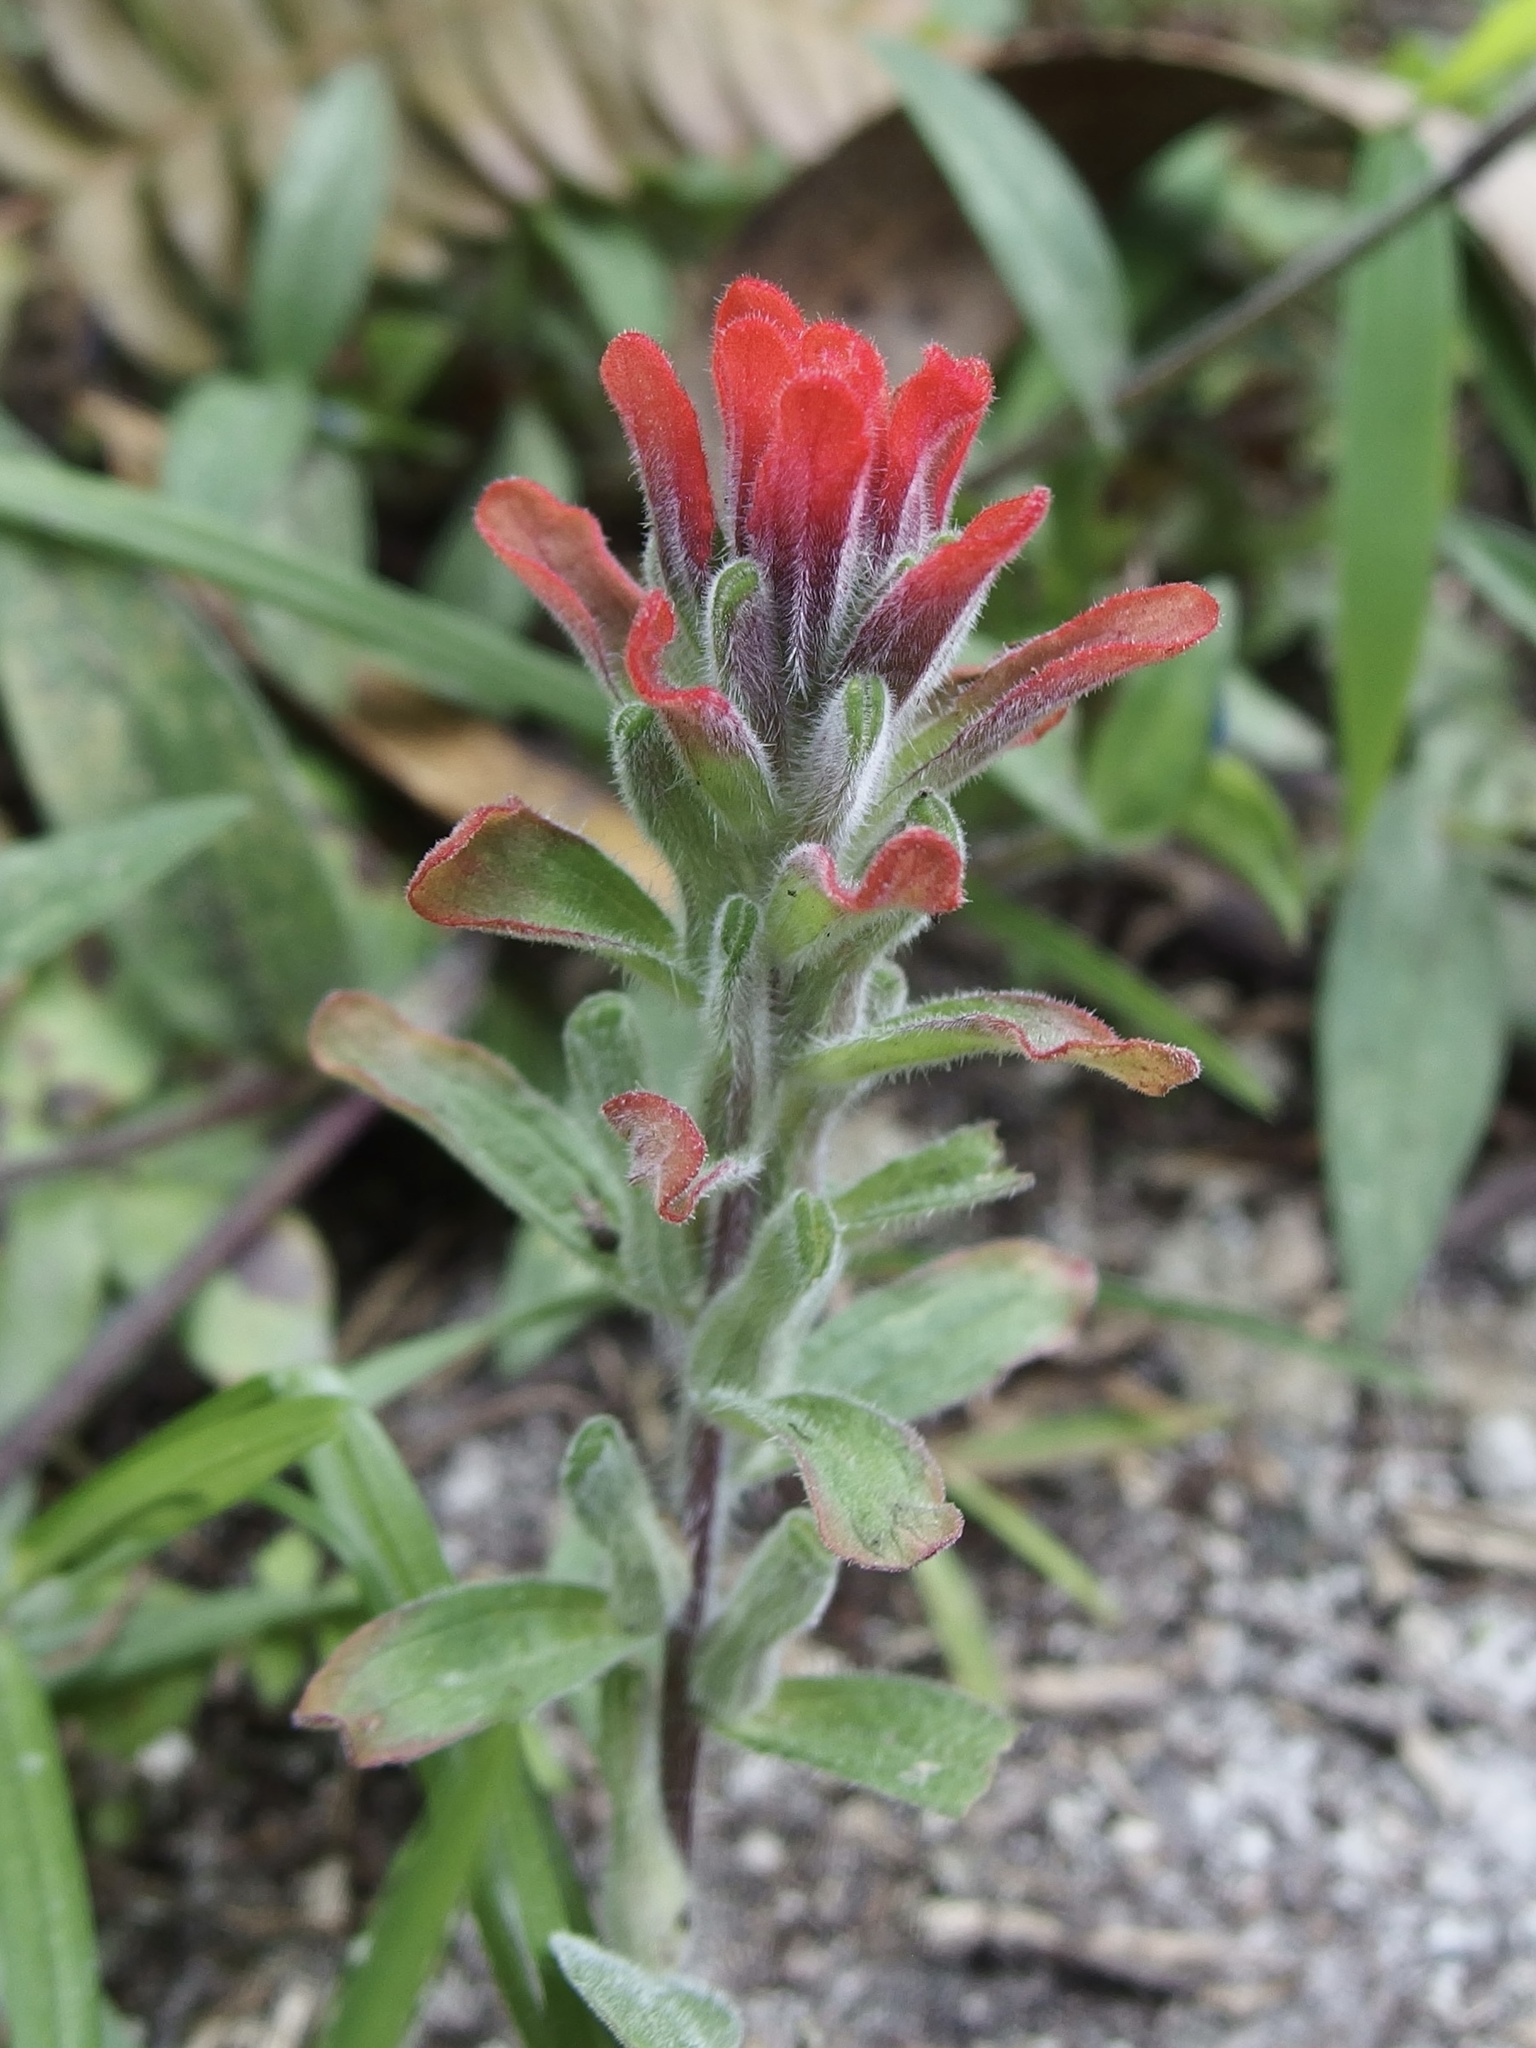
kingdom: Plantae
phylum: Tracheophyta
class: Magnoliopsida
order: Lamiales
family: Orobanchaceae
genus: Castilleja
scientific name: Castilleja arvensis
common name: Indian paintbrush
